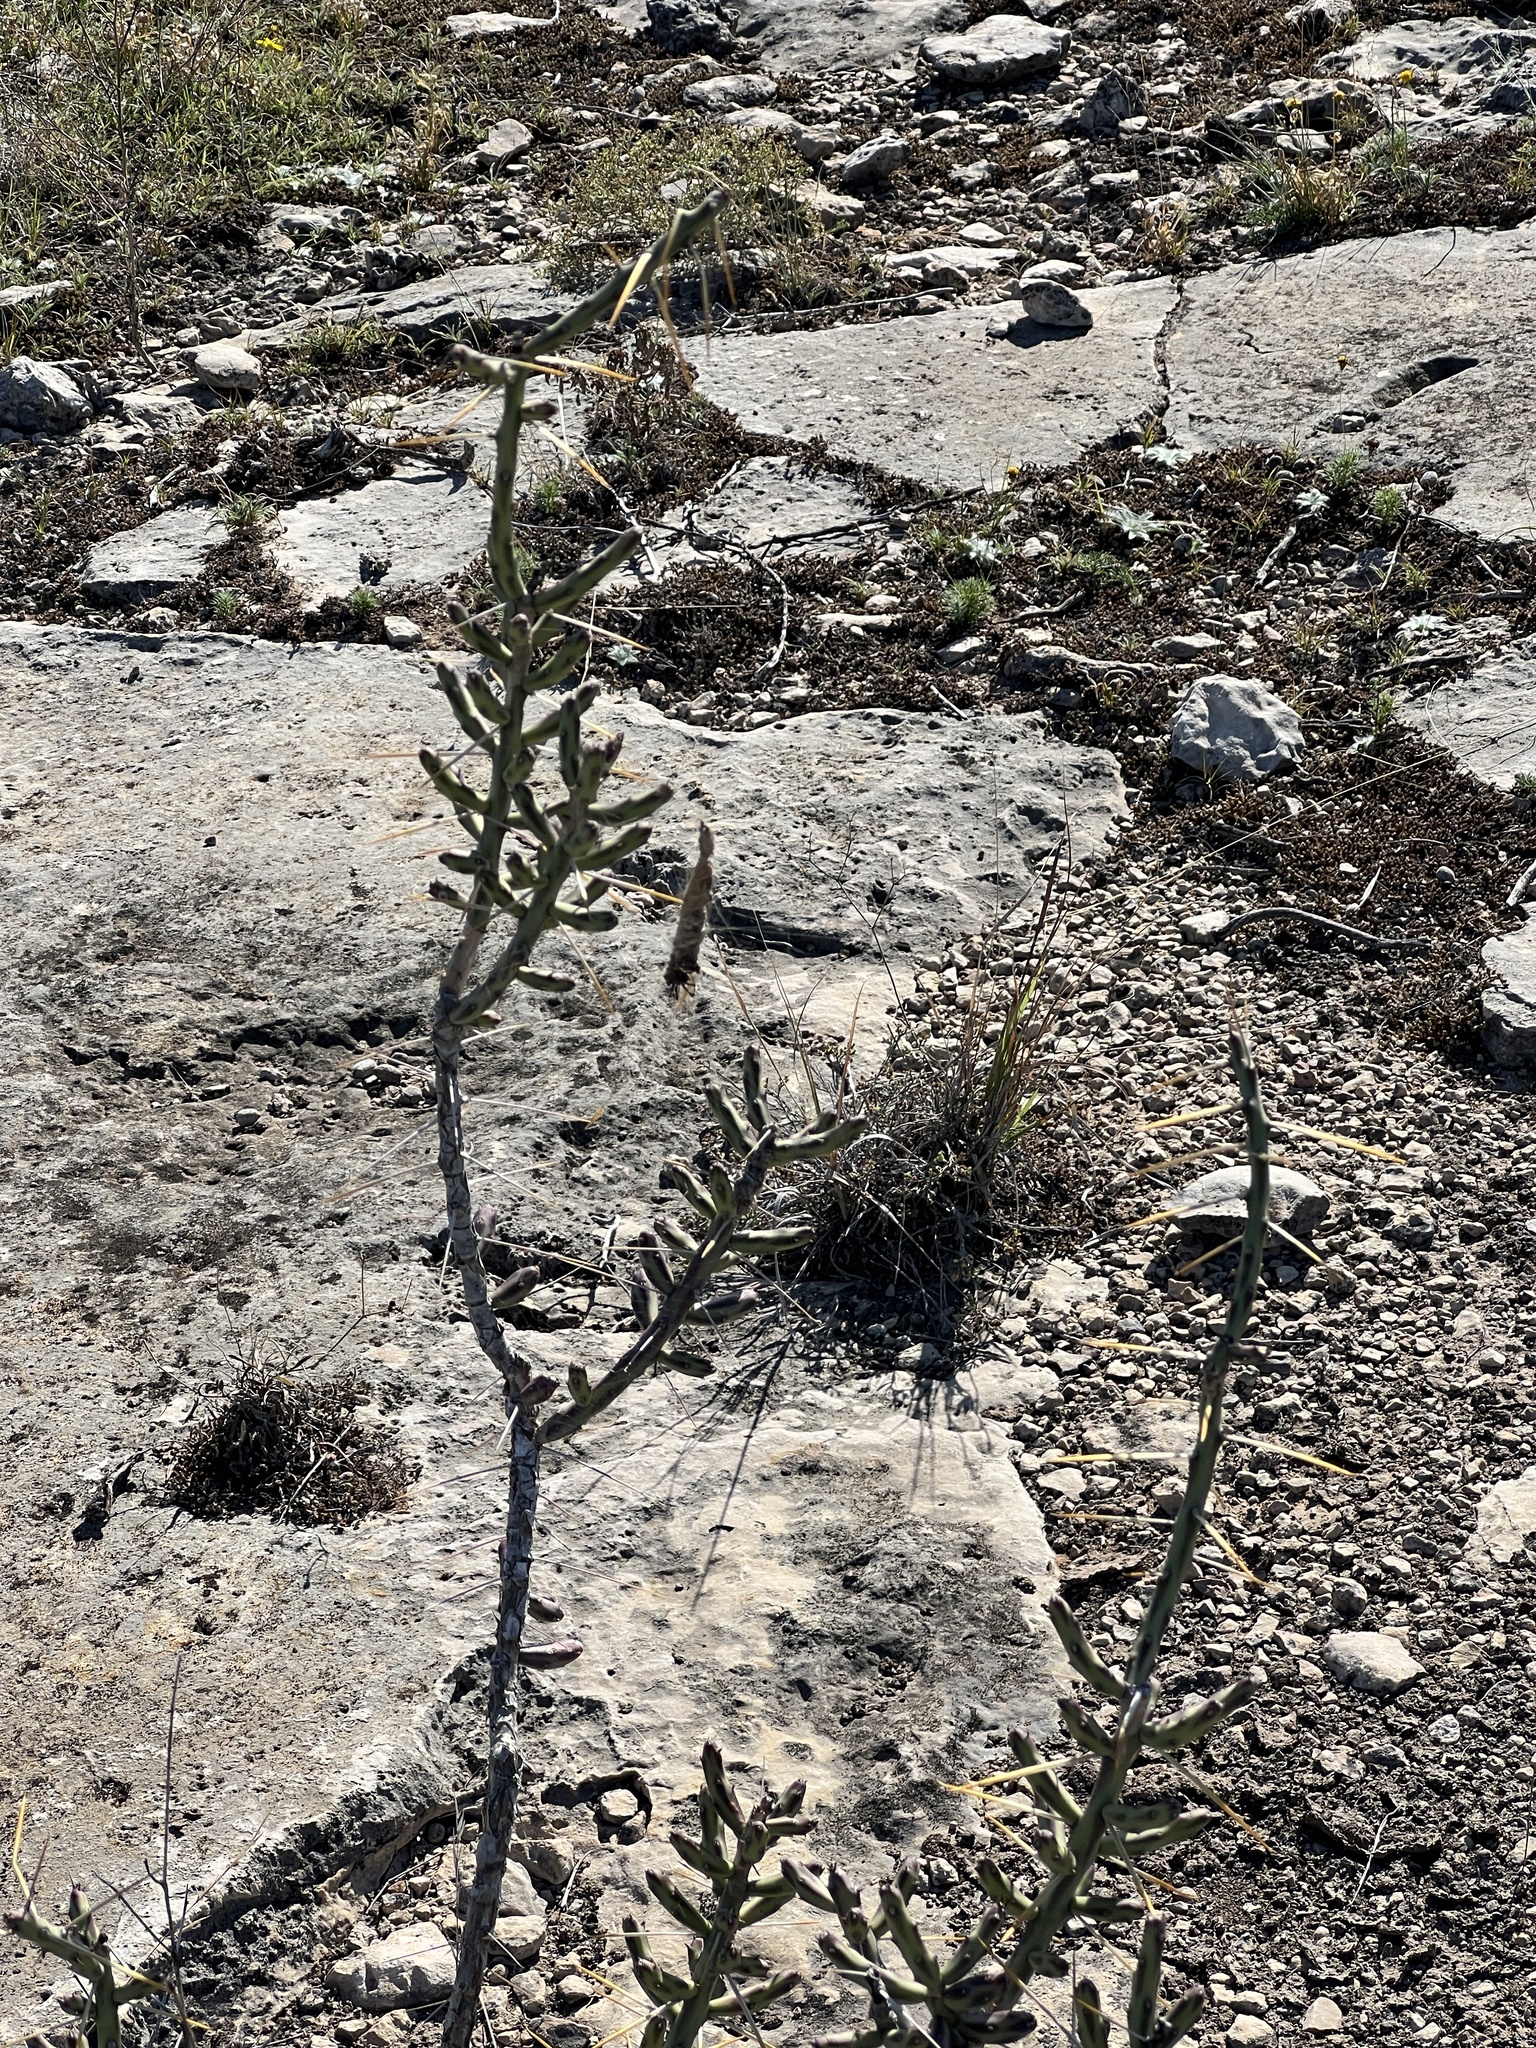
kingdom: Plantae
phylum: Tracheophyta
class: Magnoliopsida
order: Caryophyllales
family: Cactaceae
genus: Cylindropuntia
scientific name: Cylindropuntia leptocaulis
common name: Christmas cactus
